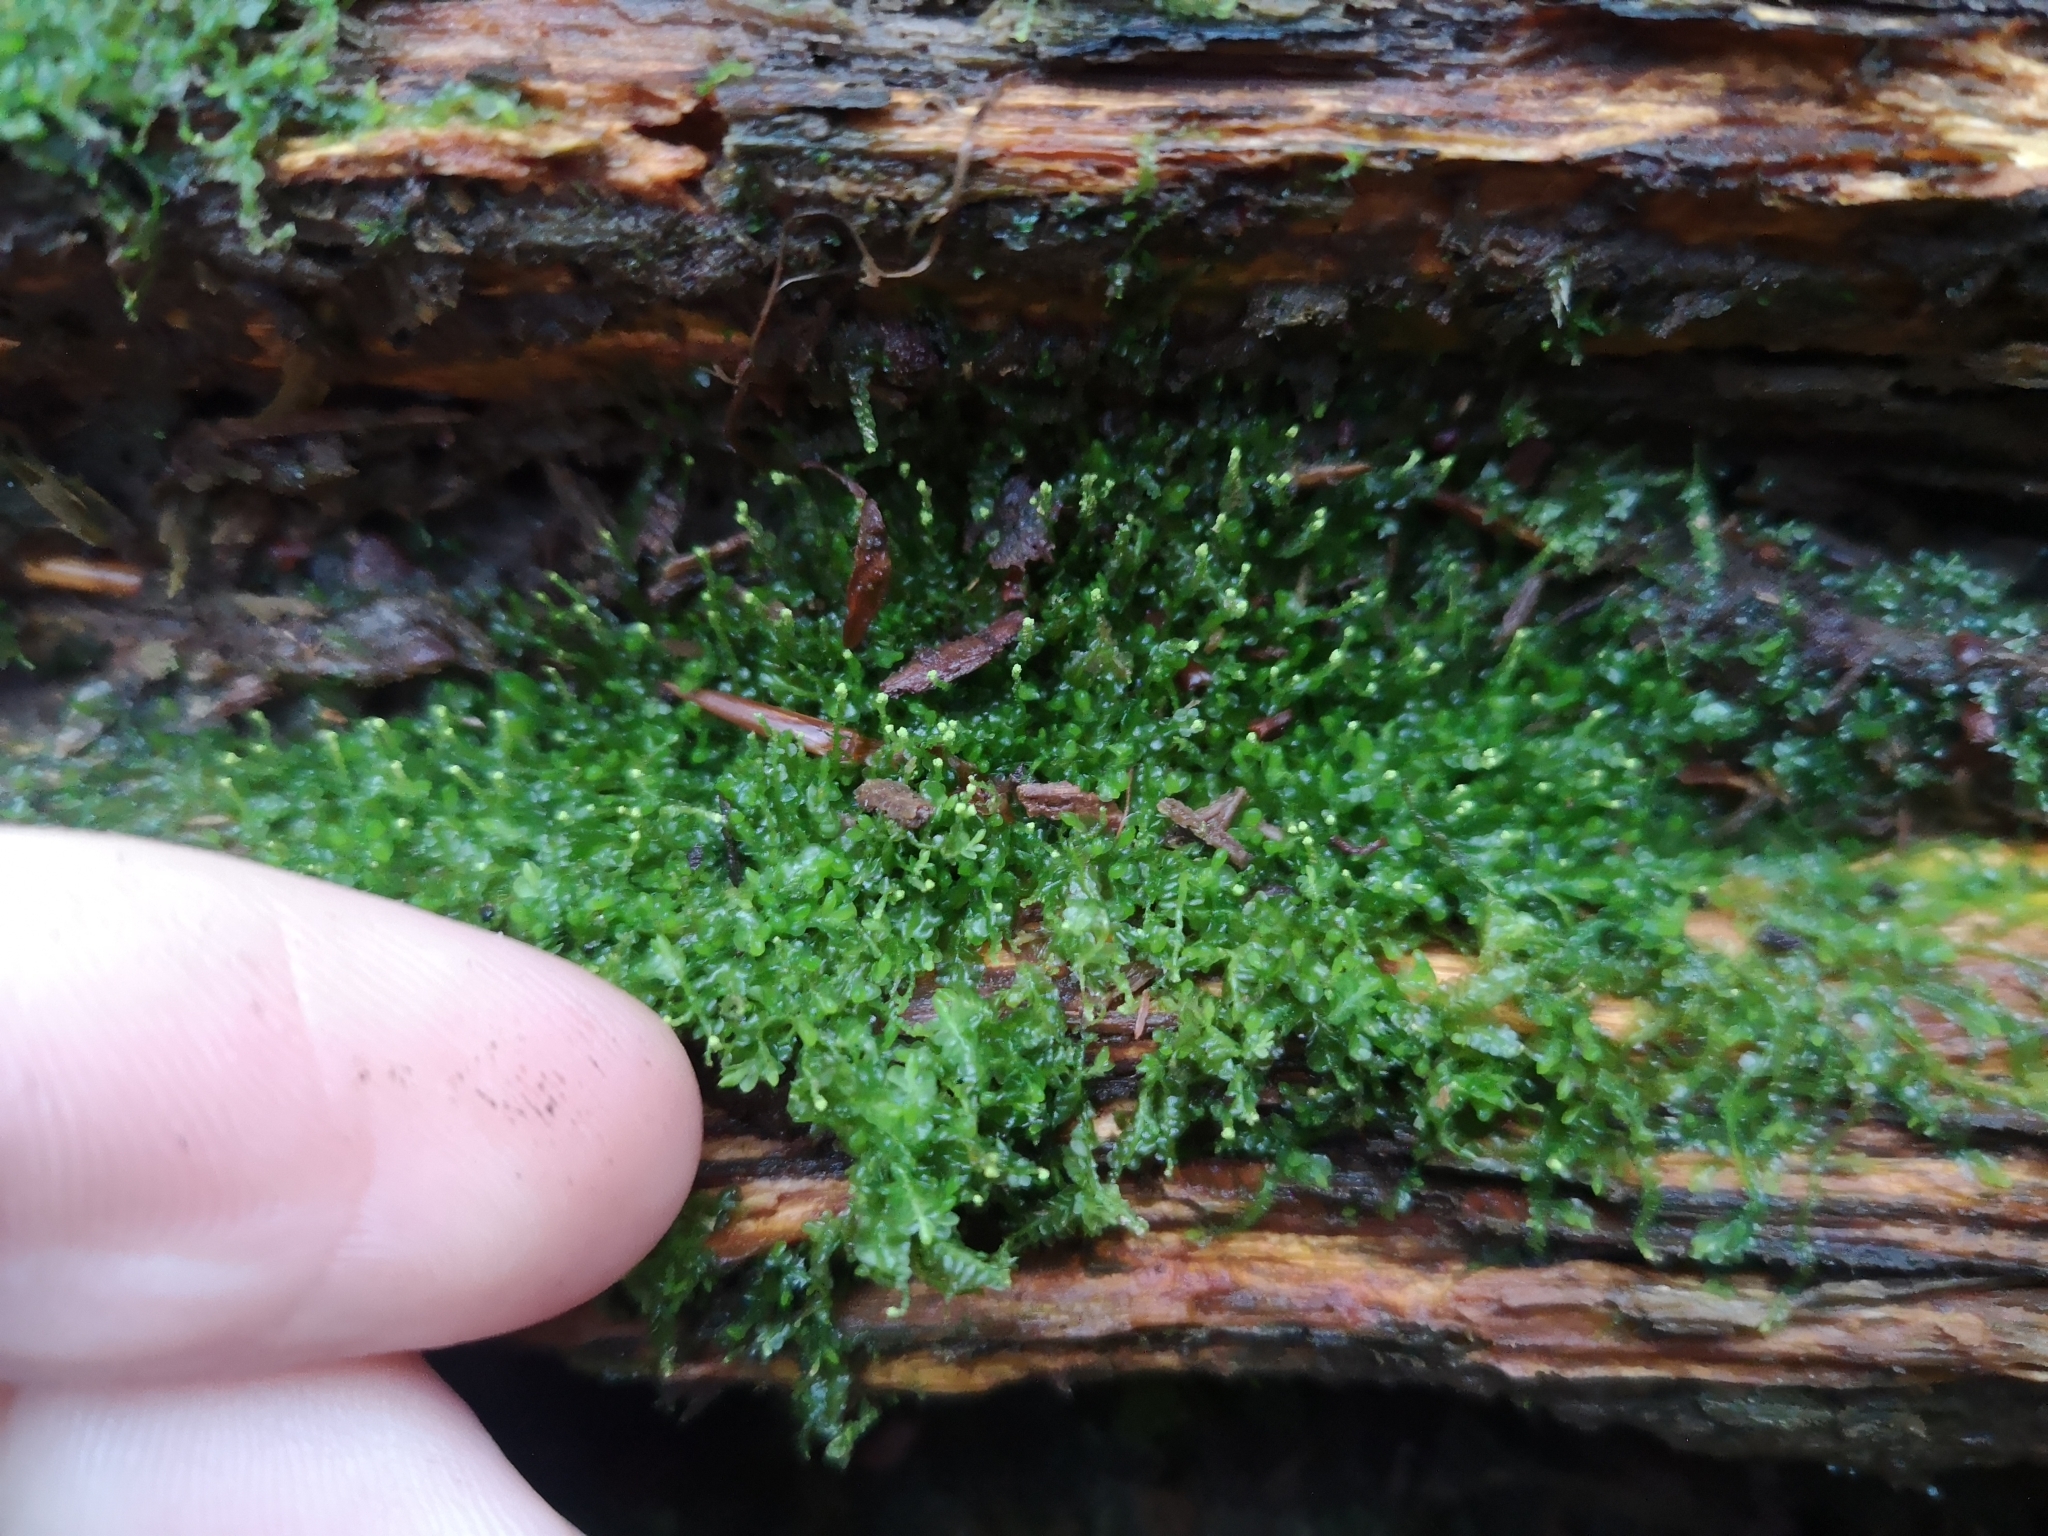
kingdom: Plantae
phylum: Marchantiophyta
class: Jungermanniopsida
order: Jungermanniales
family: Cephaloziaceae
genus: Odontoschisma
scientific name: Odontoschisma denudatum
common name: Matchstick flapwort
